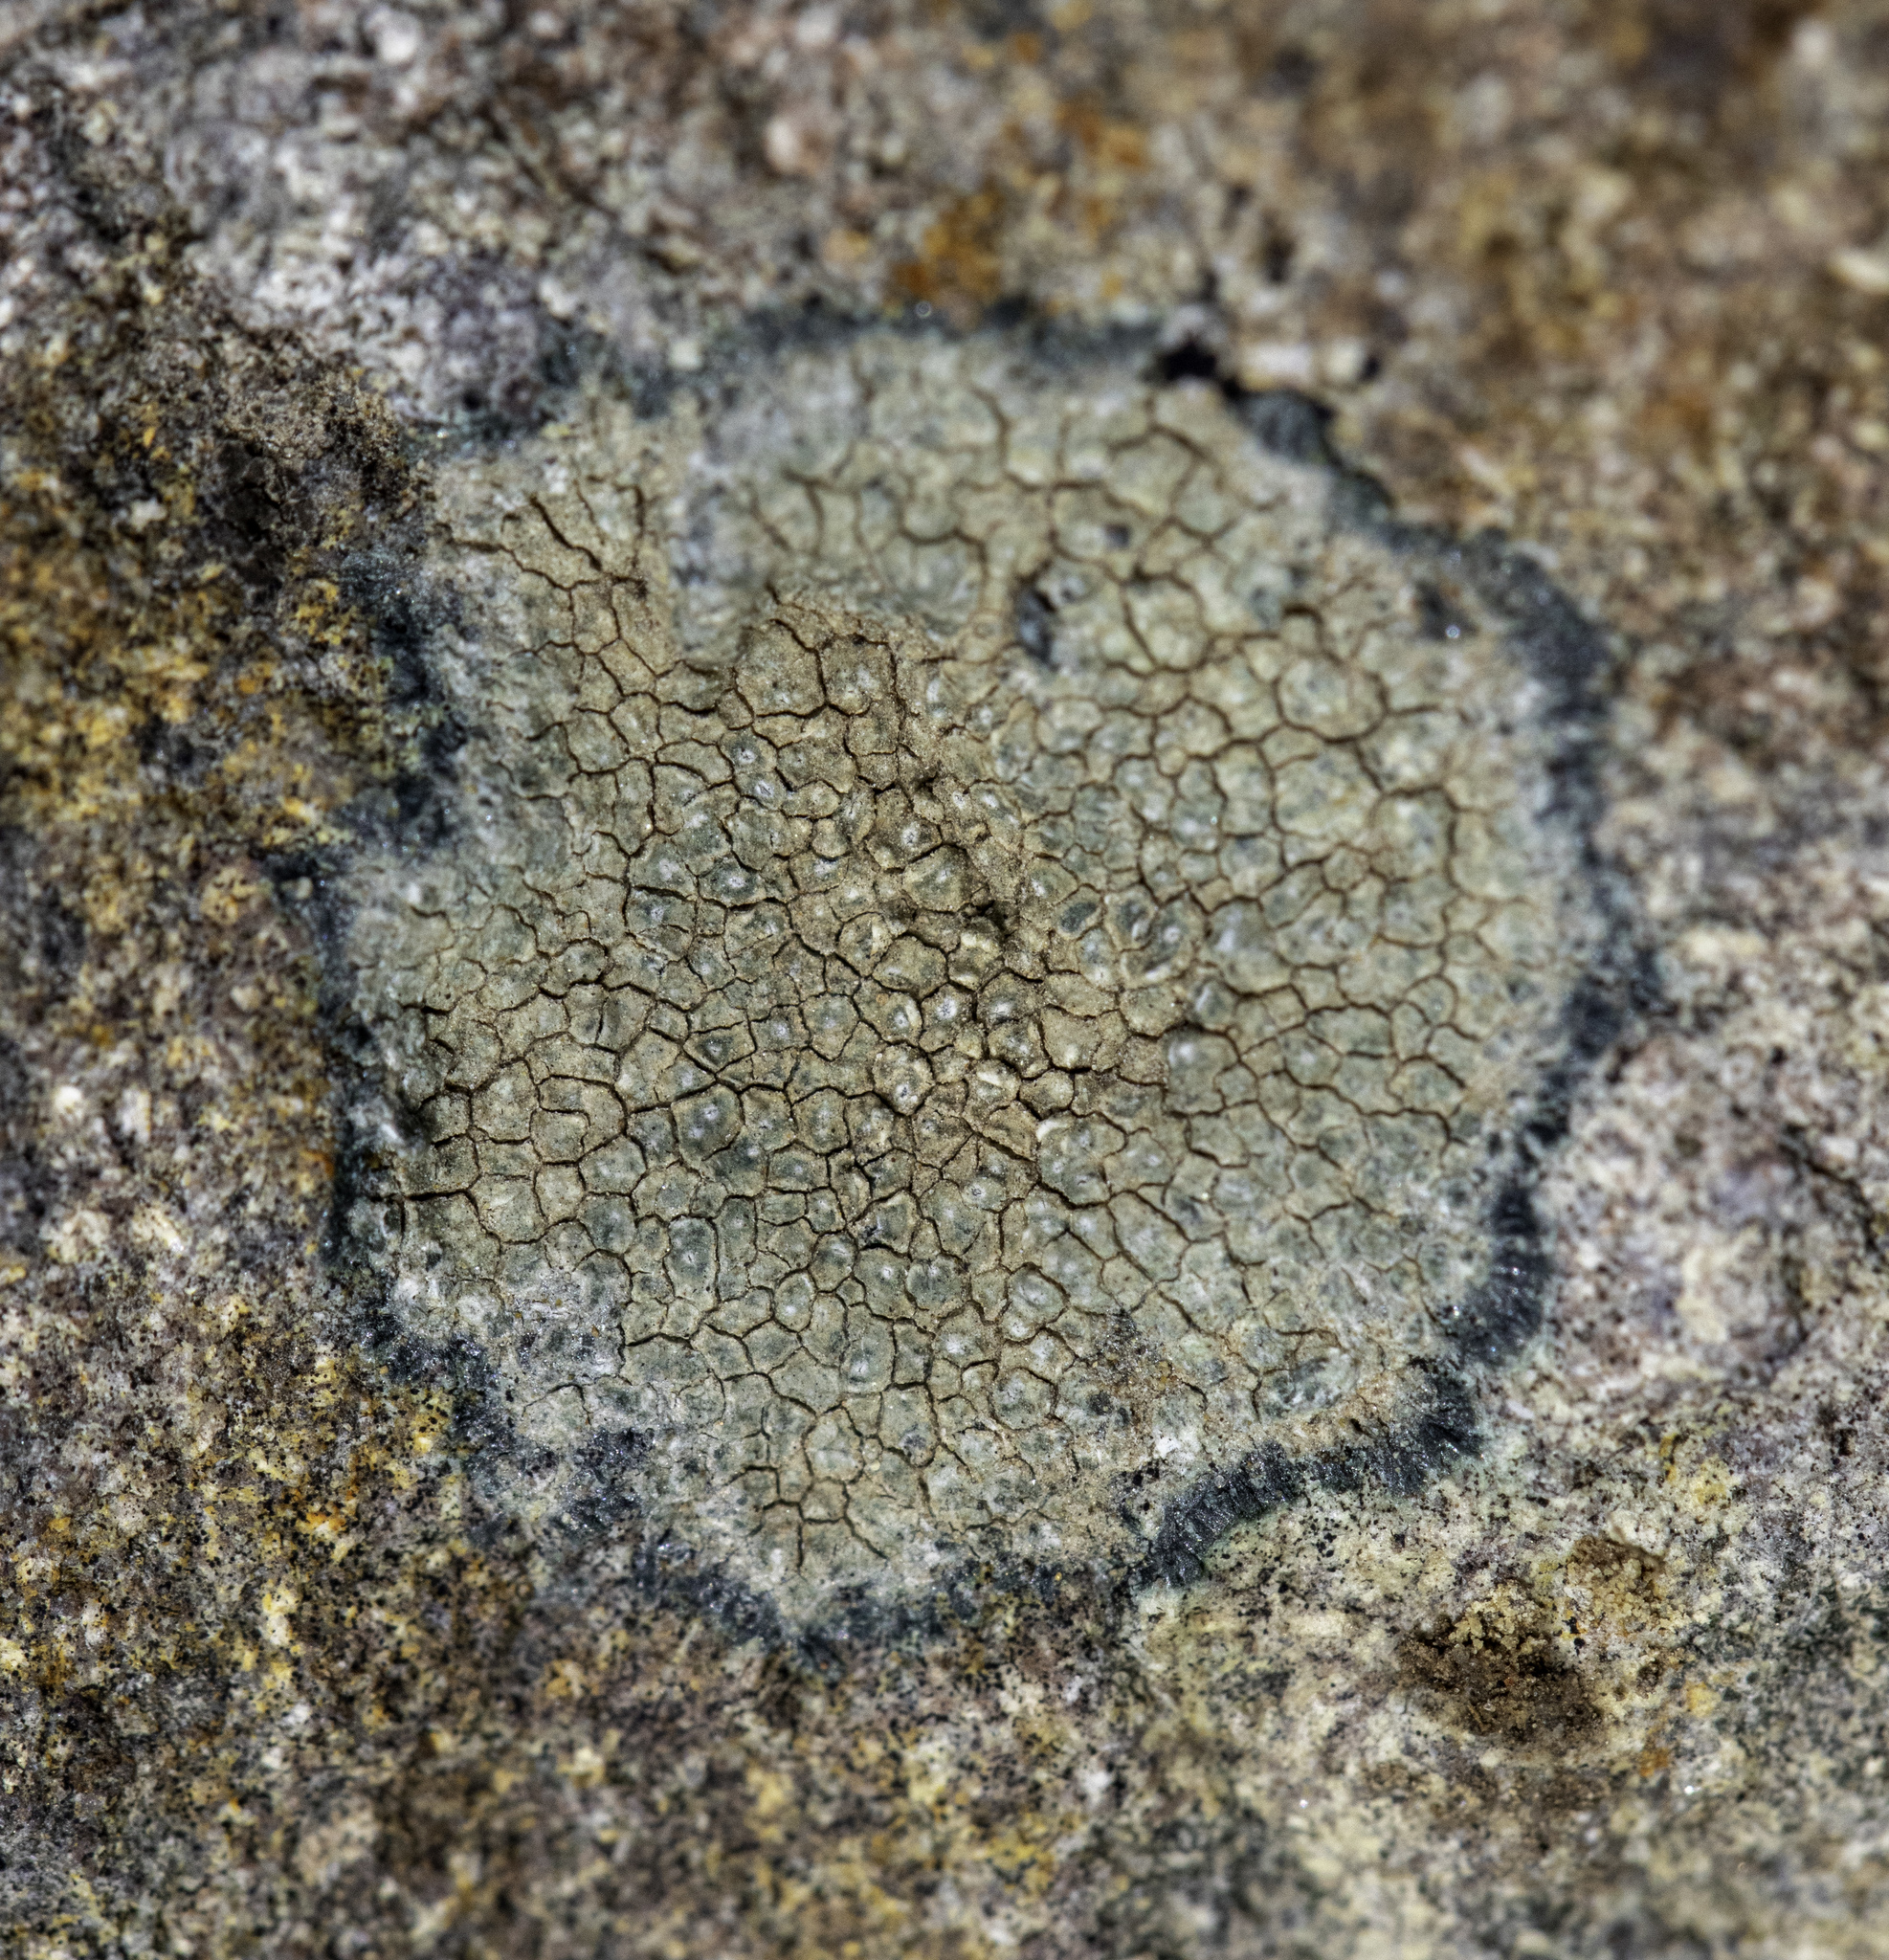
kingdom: Fungi
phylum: Ascomycota
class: Lecanoromycetes
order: Pertusariales
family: Megasporaceae
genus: Aspicilia
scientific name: Aspicilia knudsenii
